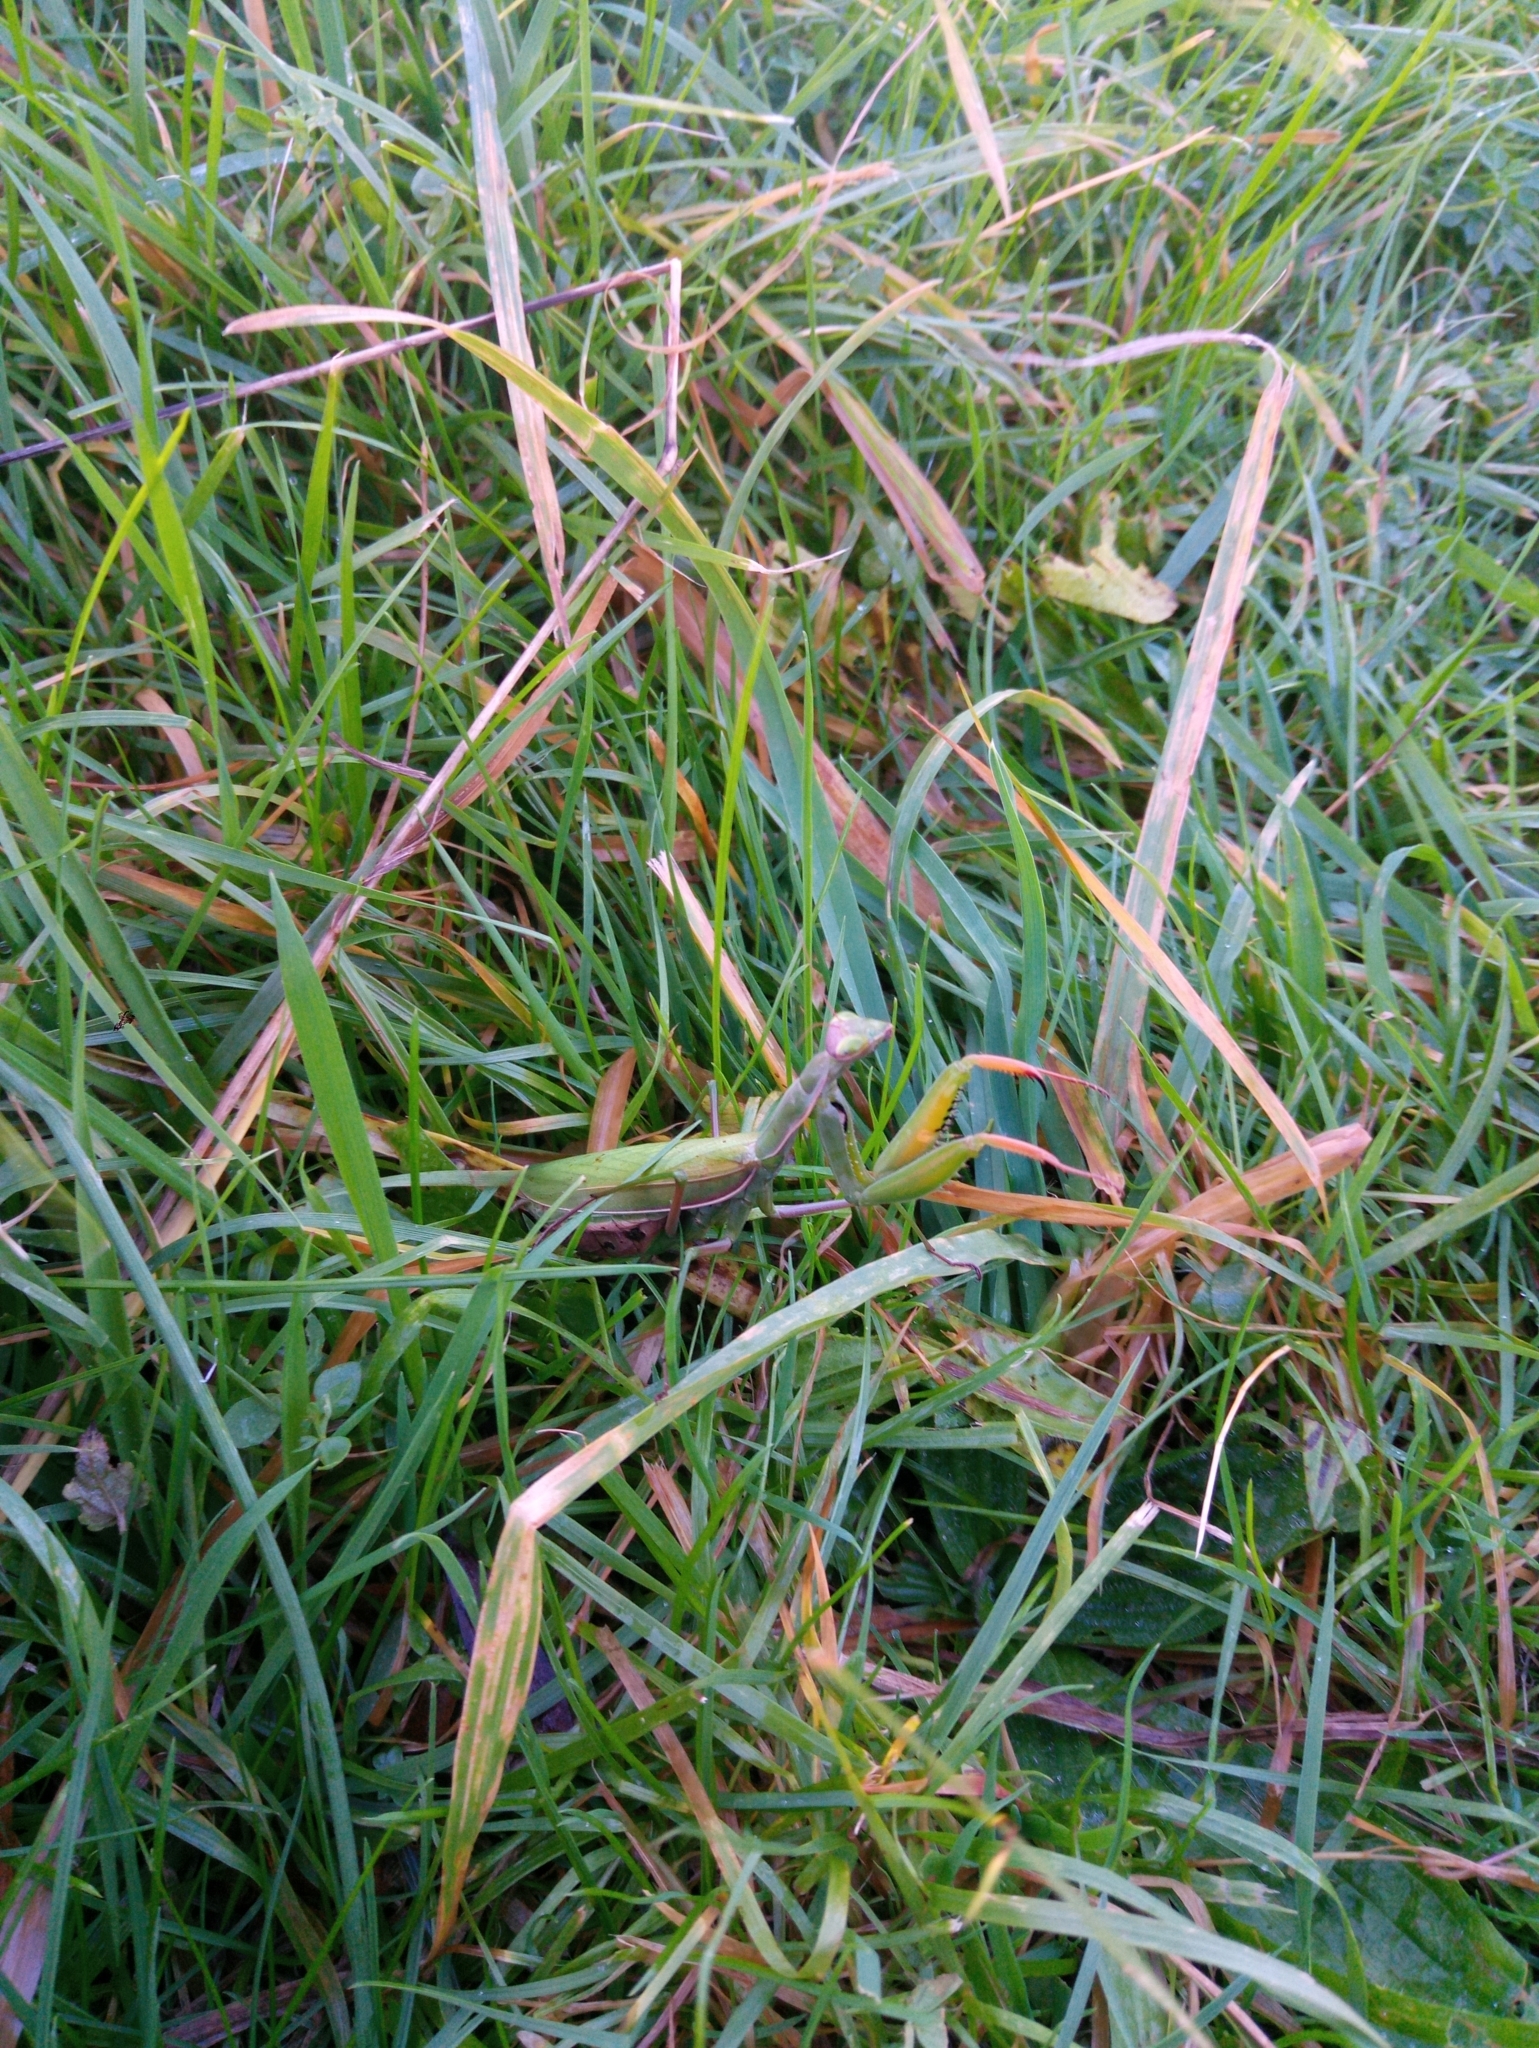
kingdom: Animalia
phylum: Arthropoda
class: Insecta
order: Mantodea
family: Mantidae
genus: Mantis
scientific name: Mantis religiosa
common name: Praying mantis
